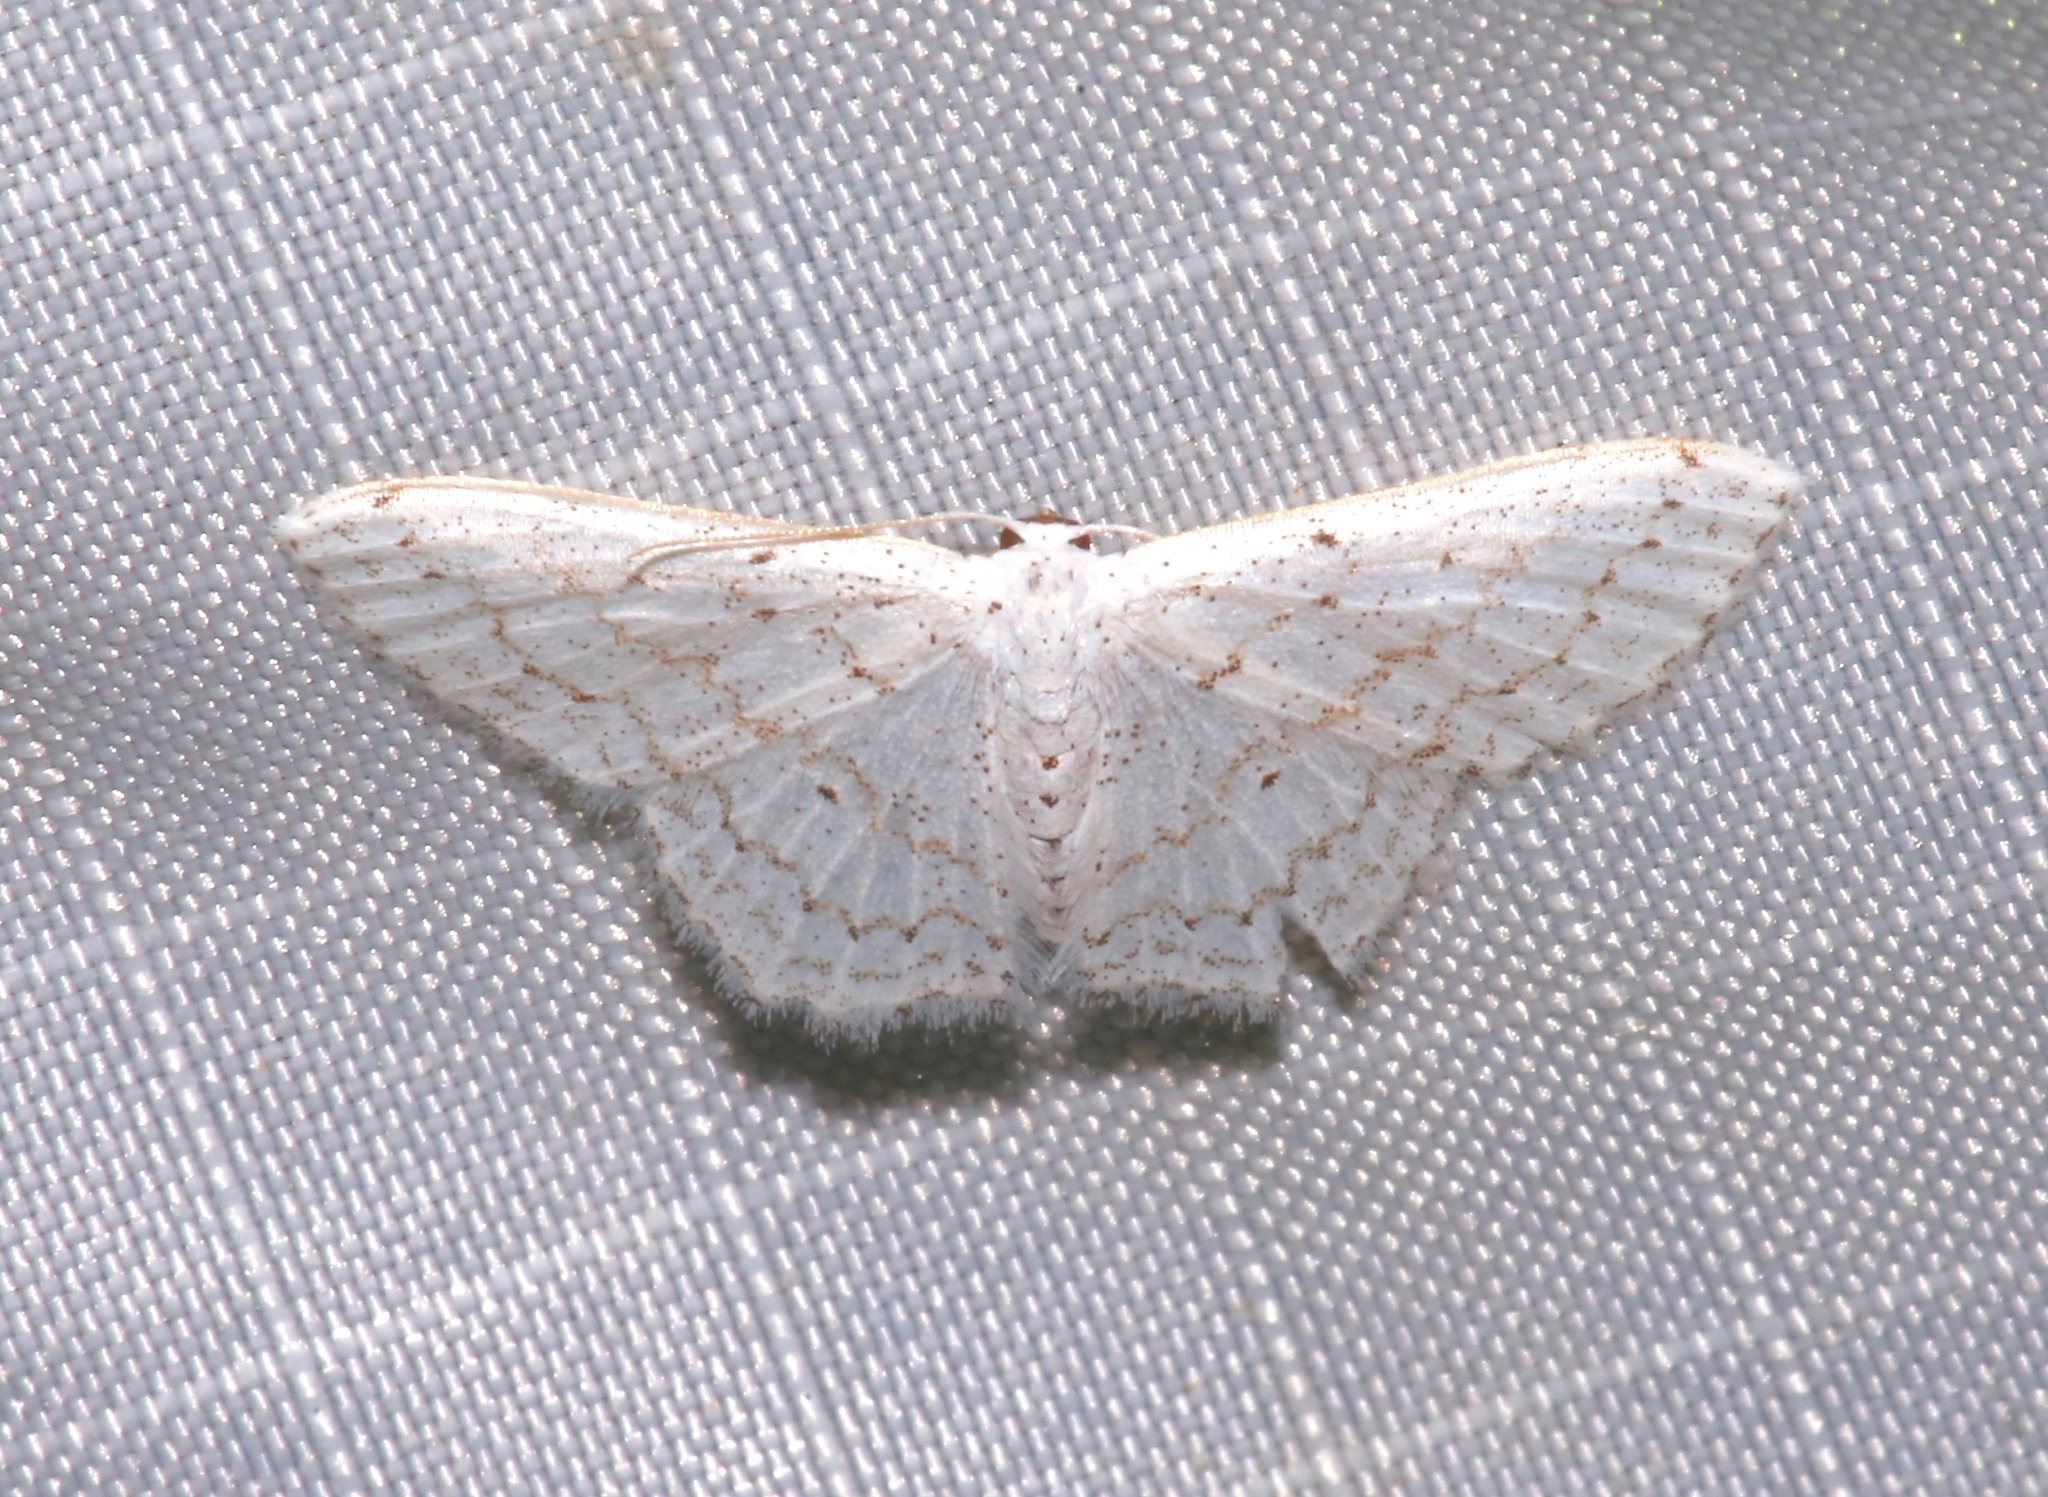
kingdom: Animalia
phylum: Arthropoda
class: Insecta
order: Lepidoptera
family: Geometridae
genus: Idaea
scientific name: Idaea tacturata
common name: Dot-lined wave
